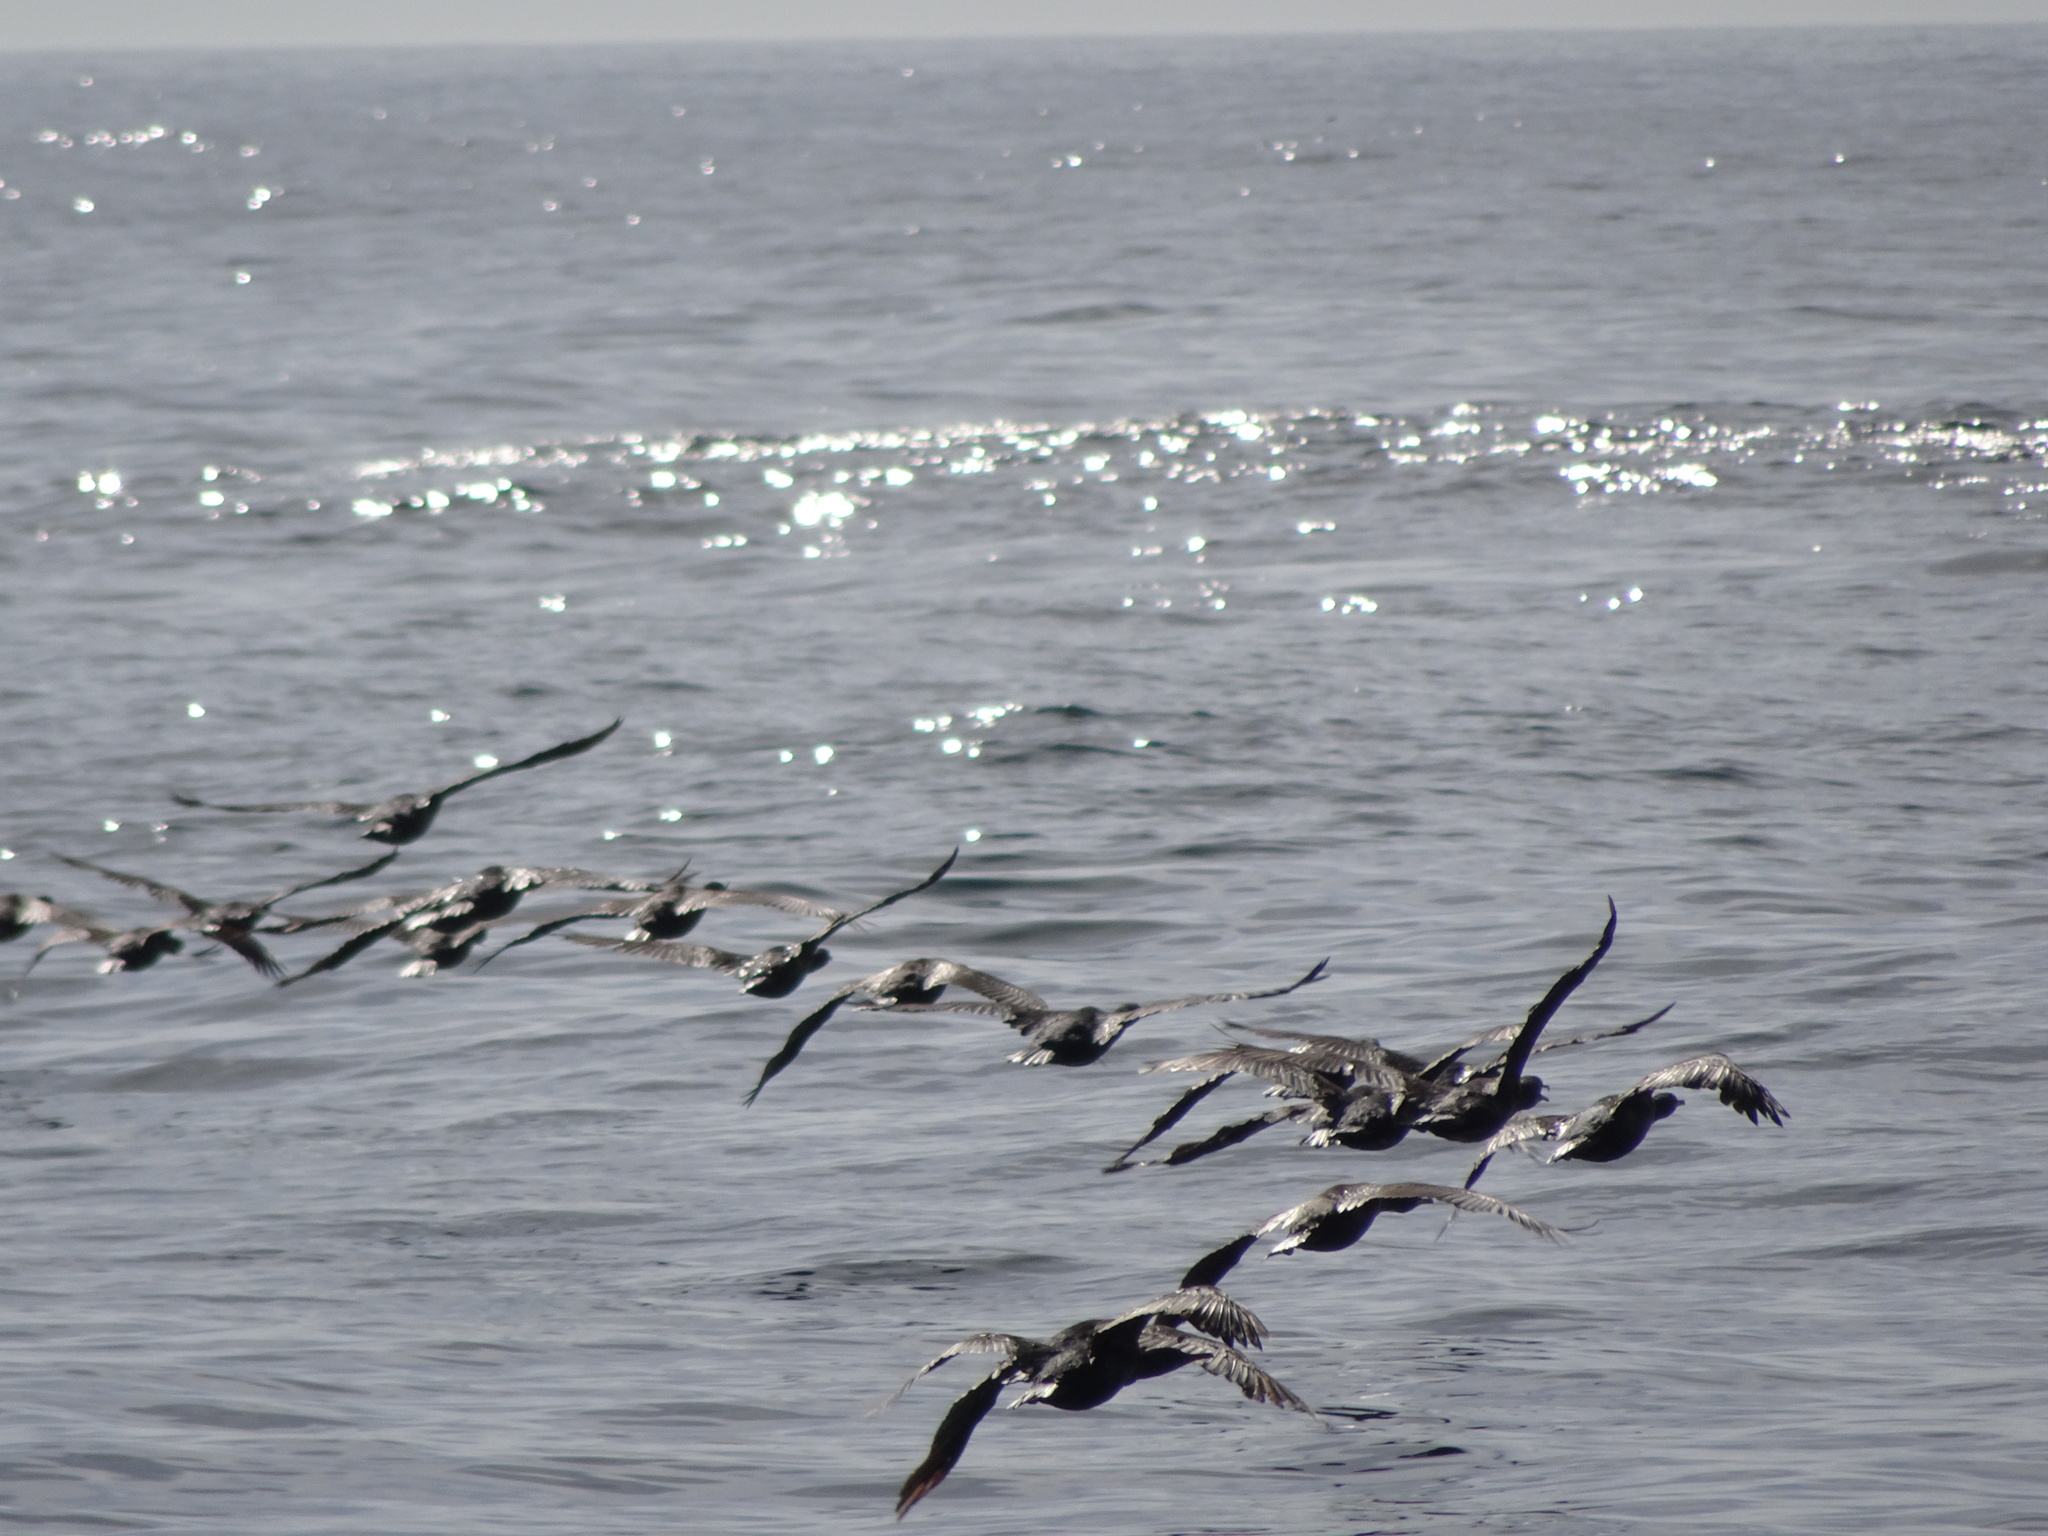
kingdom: Animalia
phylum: Chordata
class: Aves
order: Suliformes
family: Phalacrocoracidae
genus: Urile
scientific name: Urile penicillatus
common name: Brandt's cormorant
